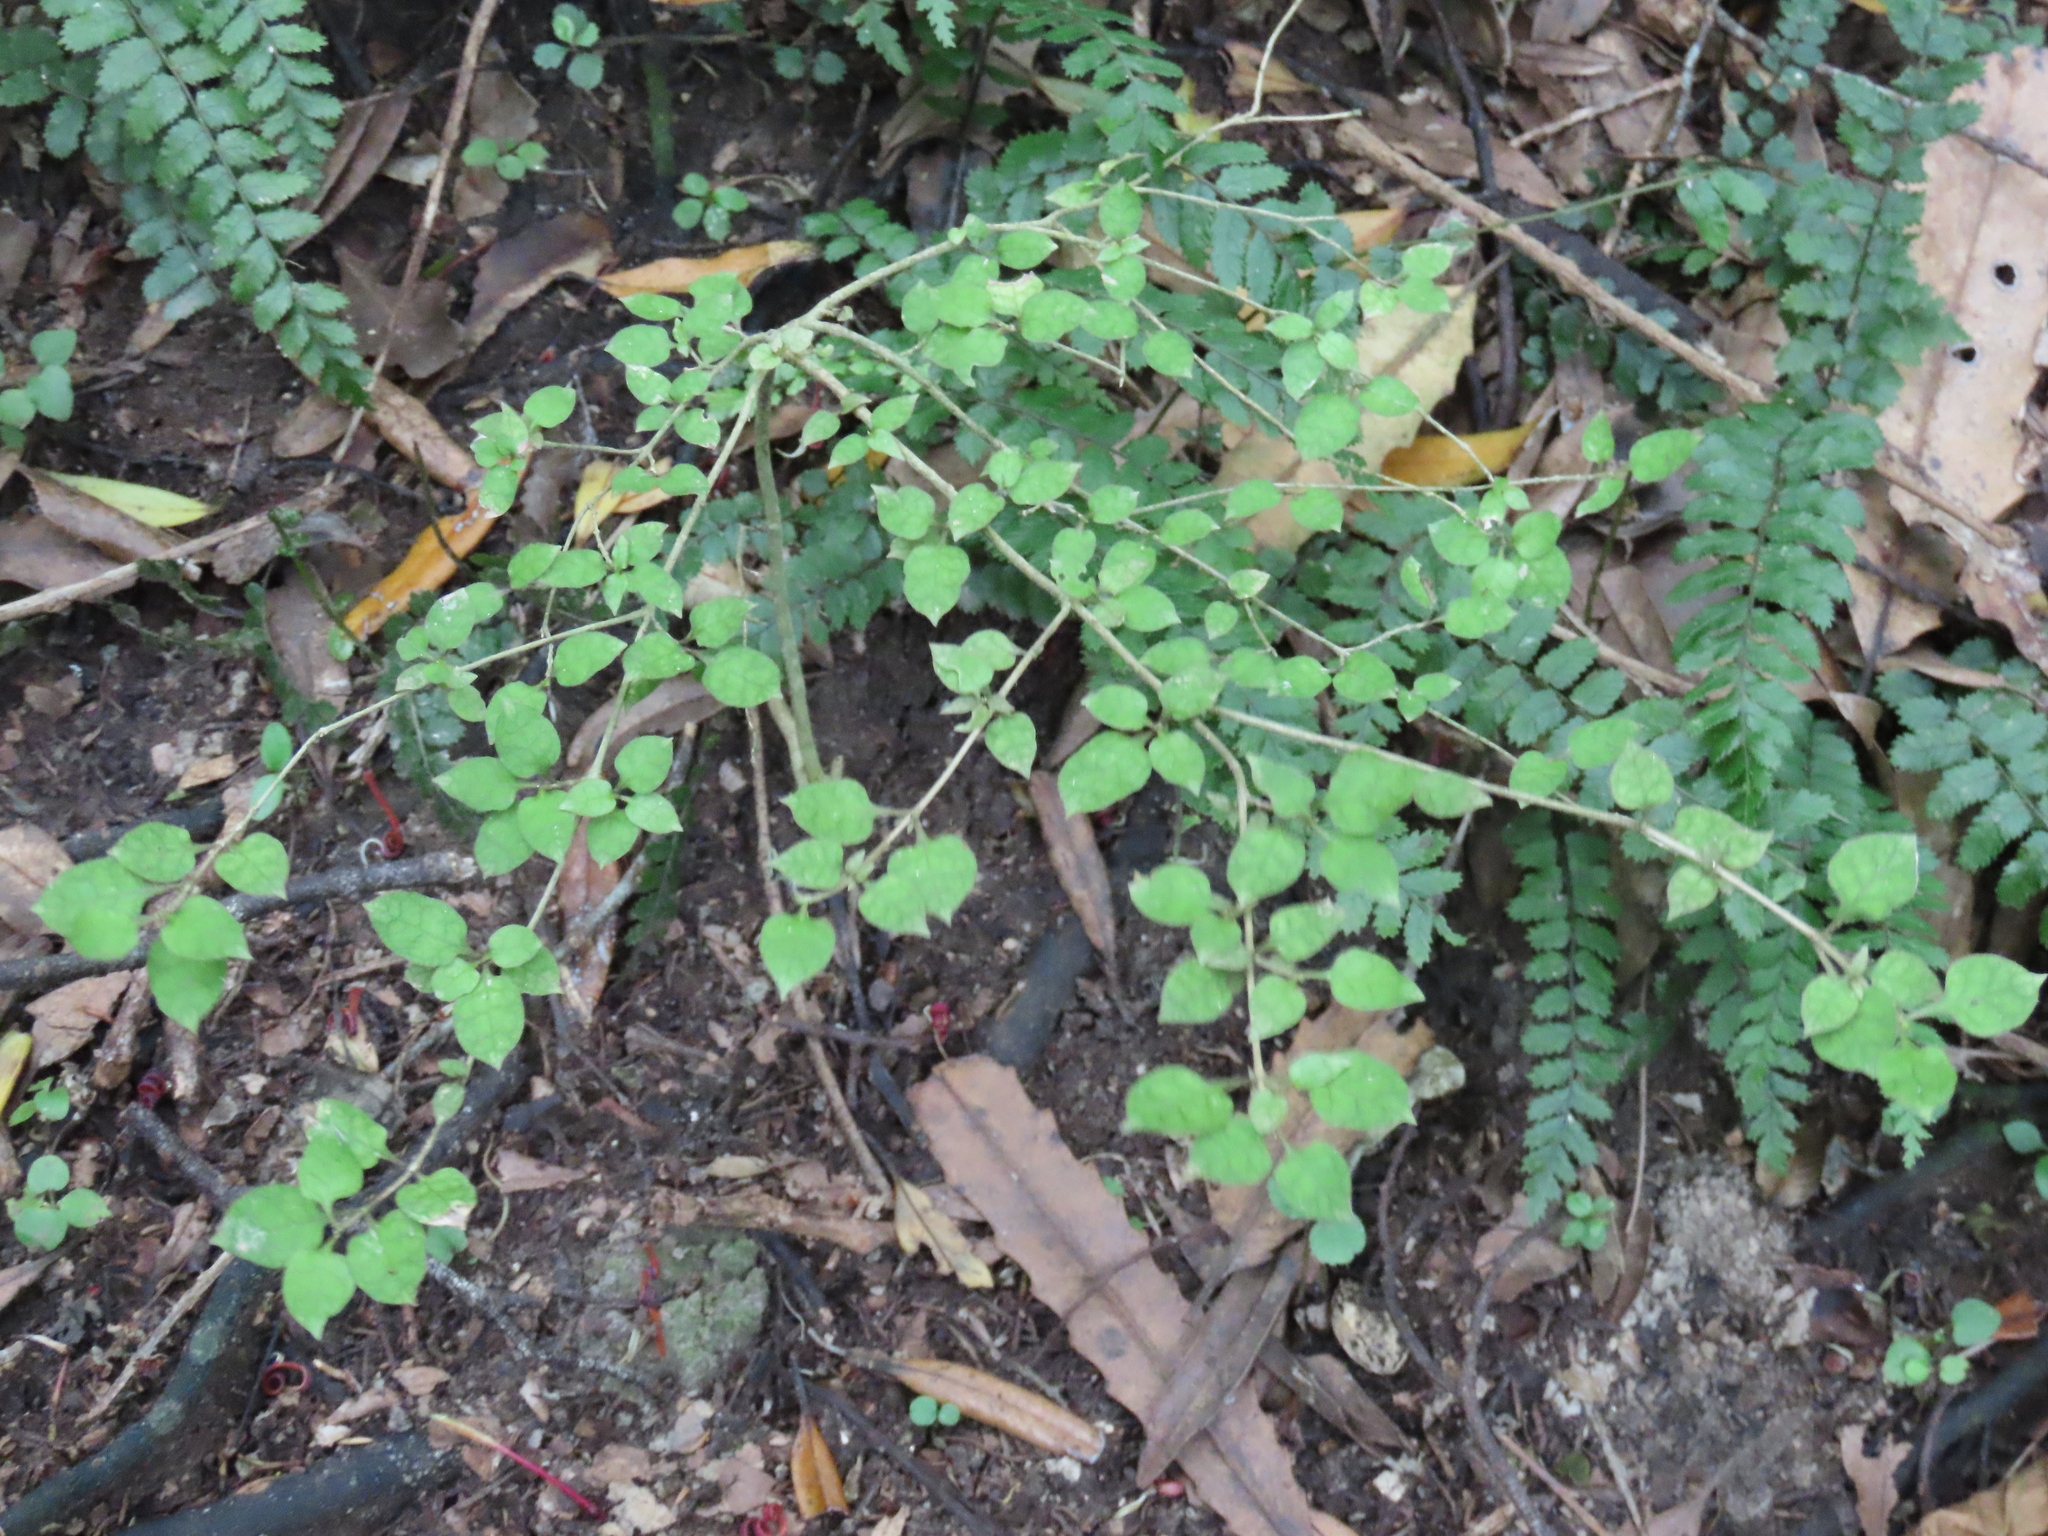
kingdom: Plantae
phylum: Tracheophyta
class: Magnoliopsida
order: Gentianales
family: Rubiaceae
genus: Coprosma
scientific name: Coprosma areolata
